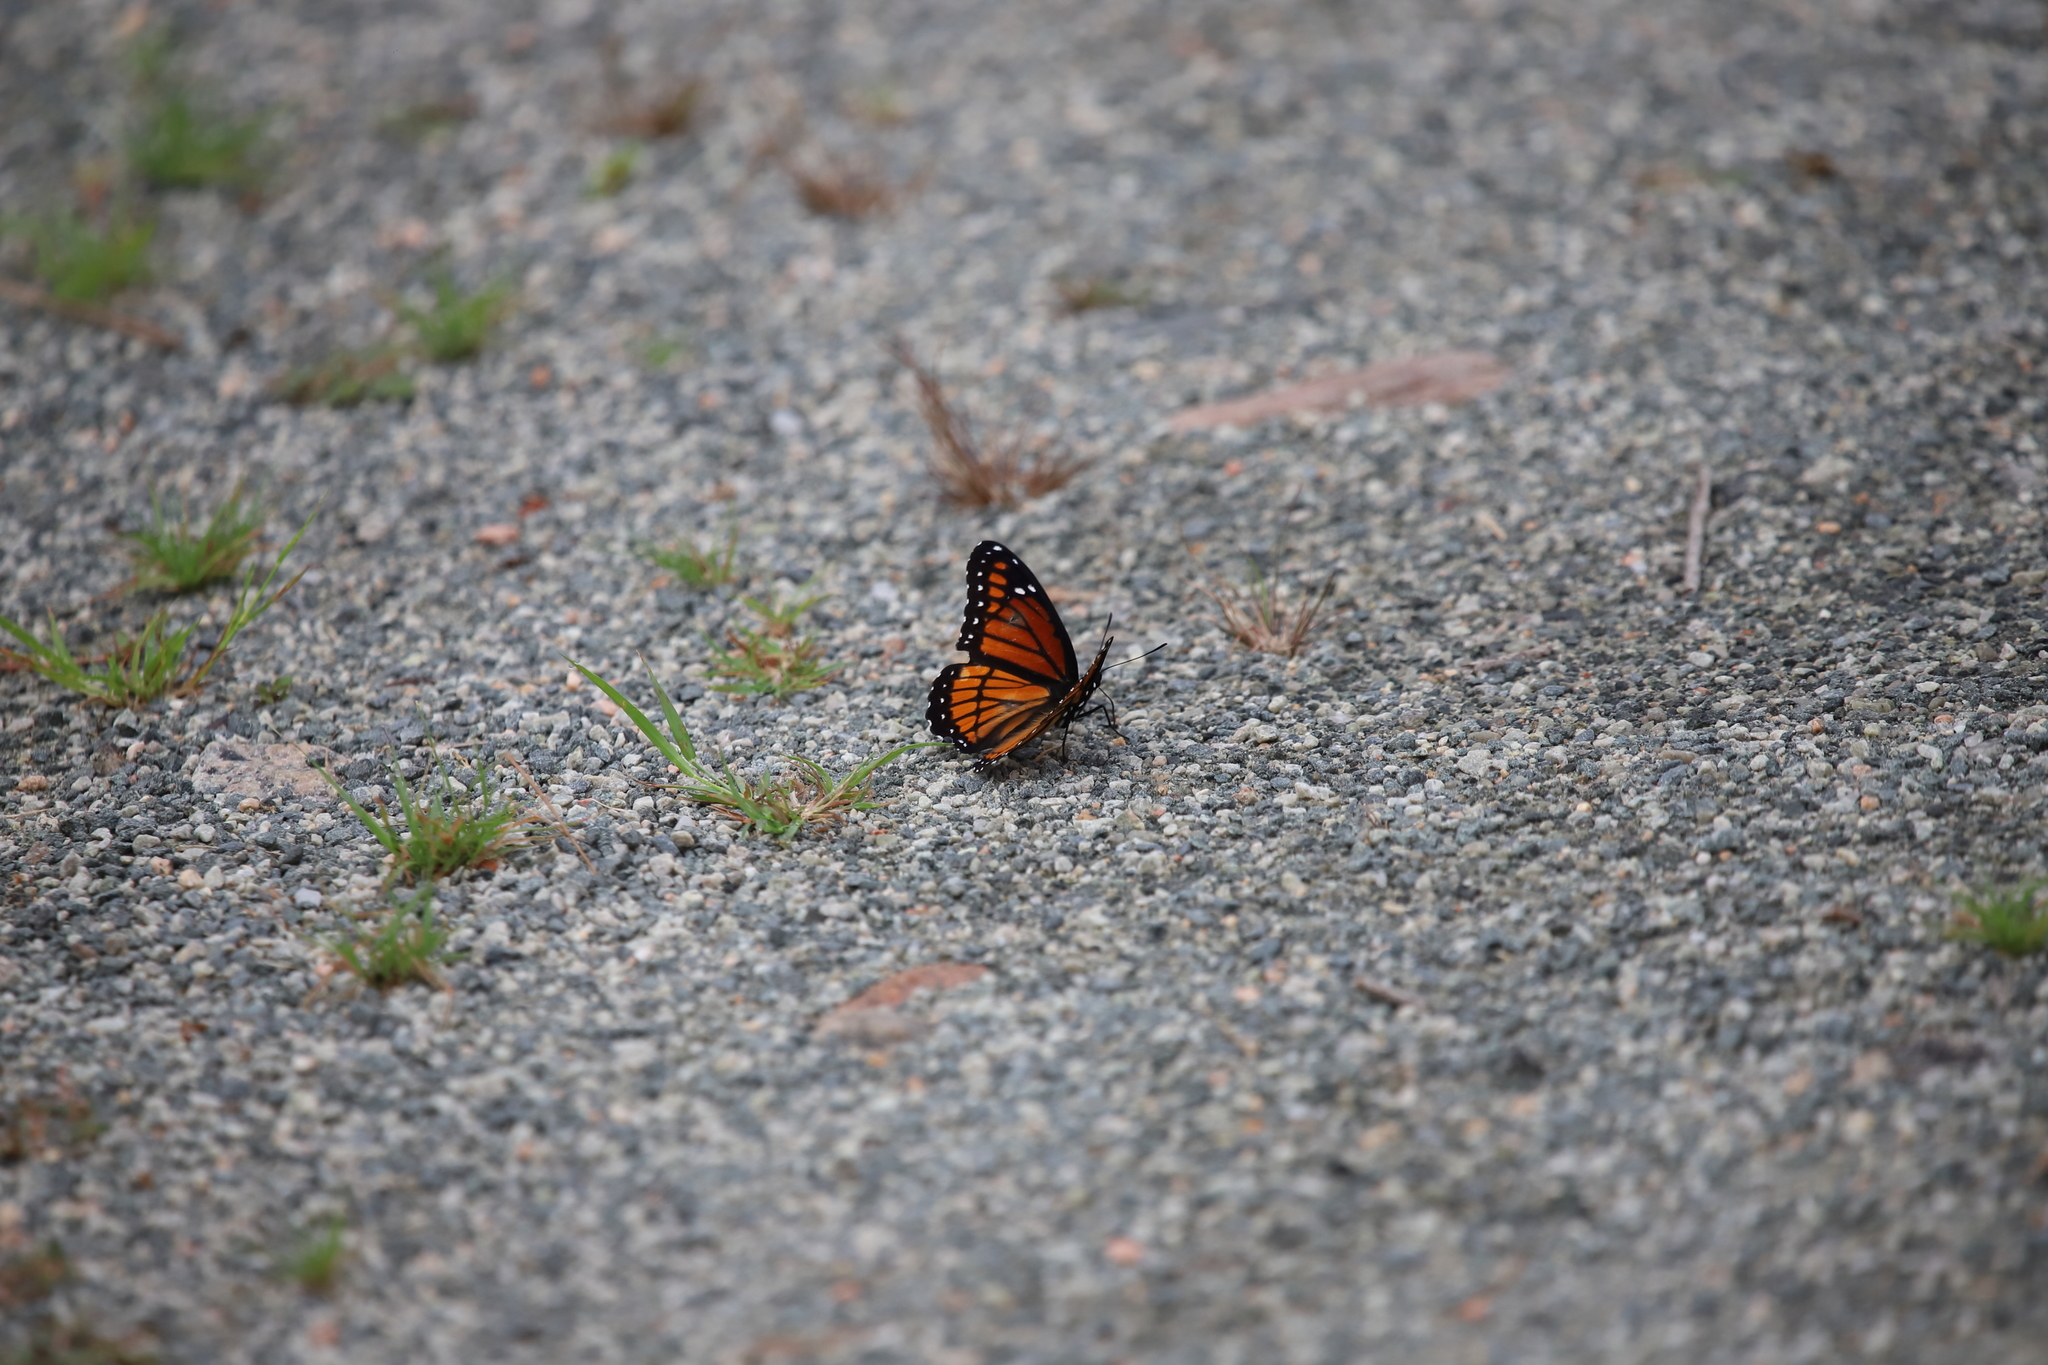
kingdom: Animalia
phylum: Arthropoda
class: Insecta
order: Lepidoptera
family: Nymphalidae
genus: Limenitis
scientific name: Limenitis archippus
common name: Viceroy
